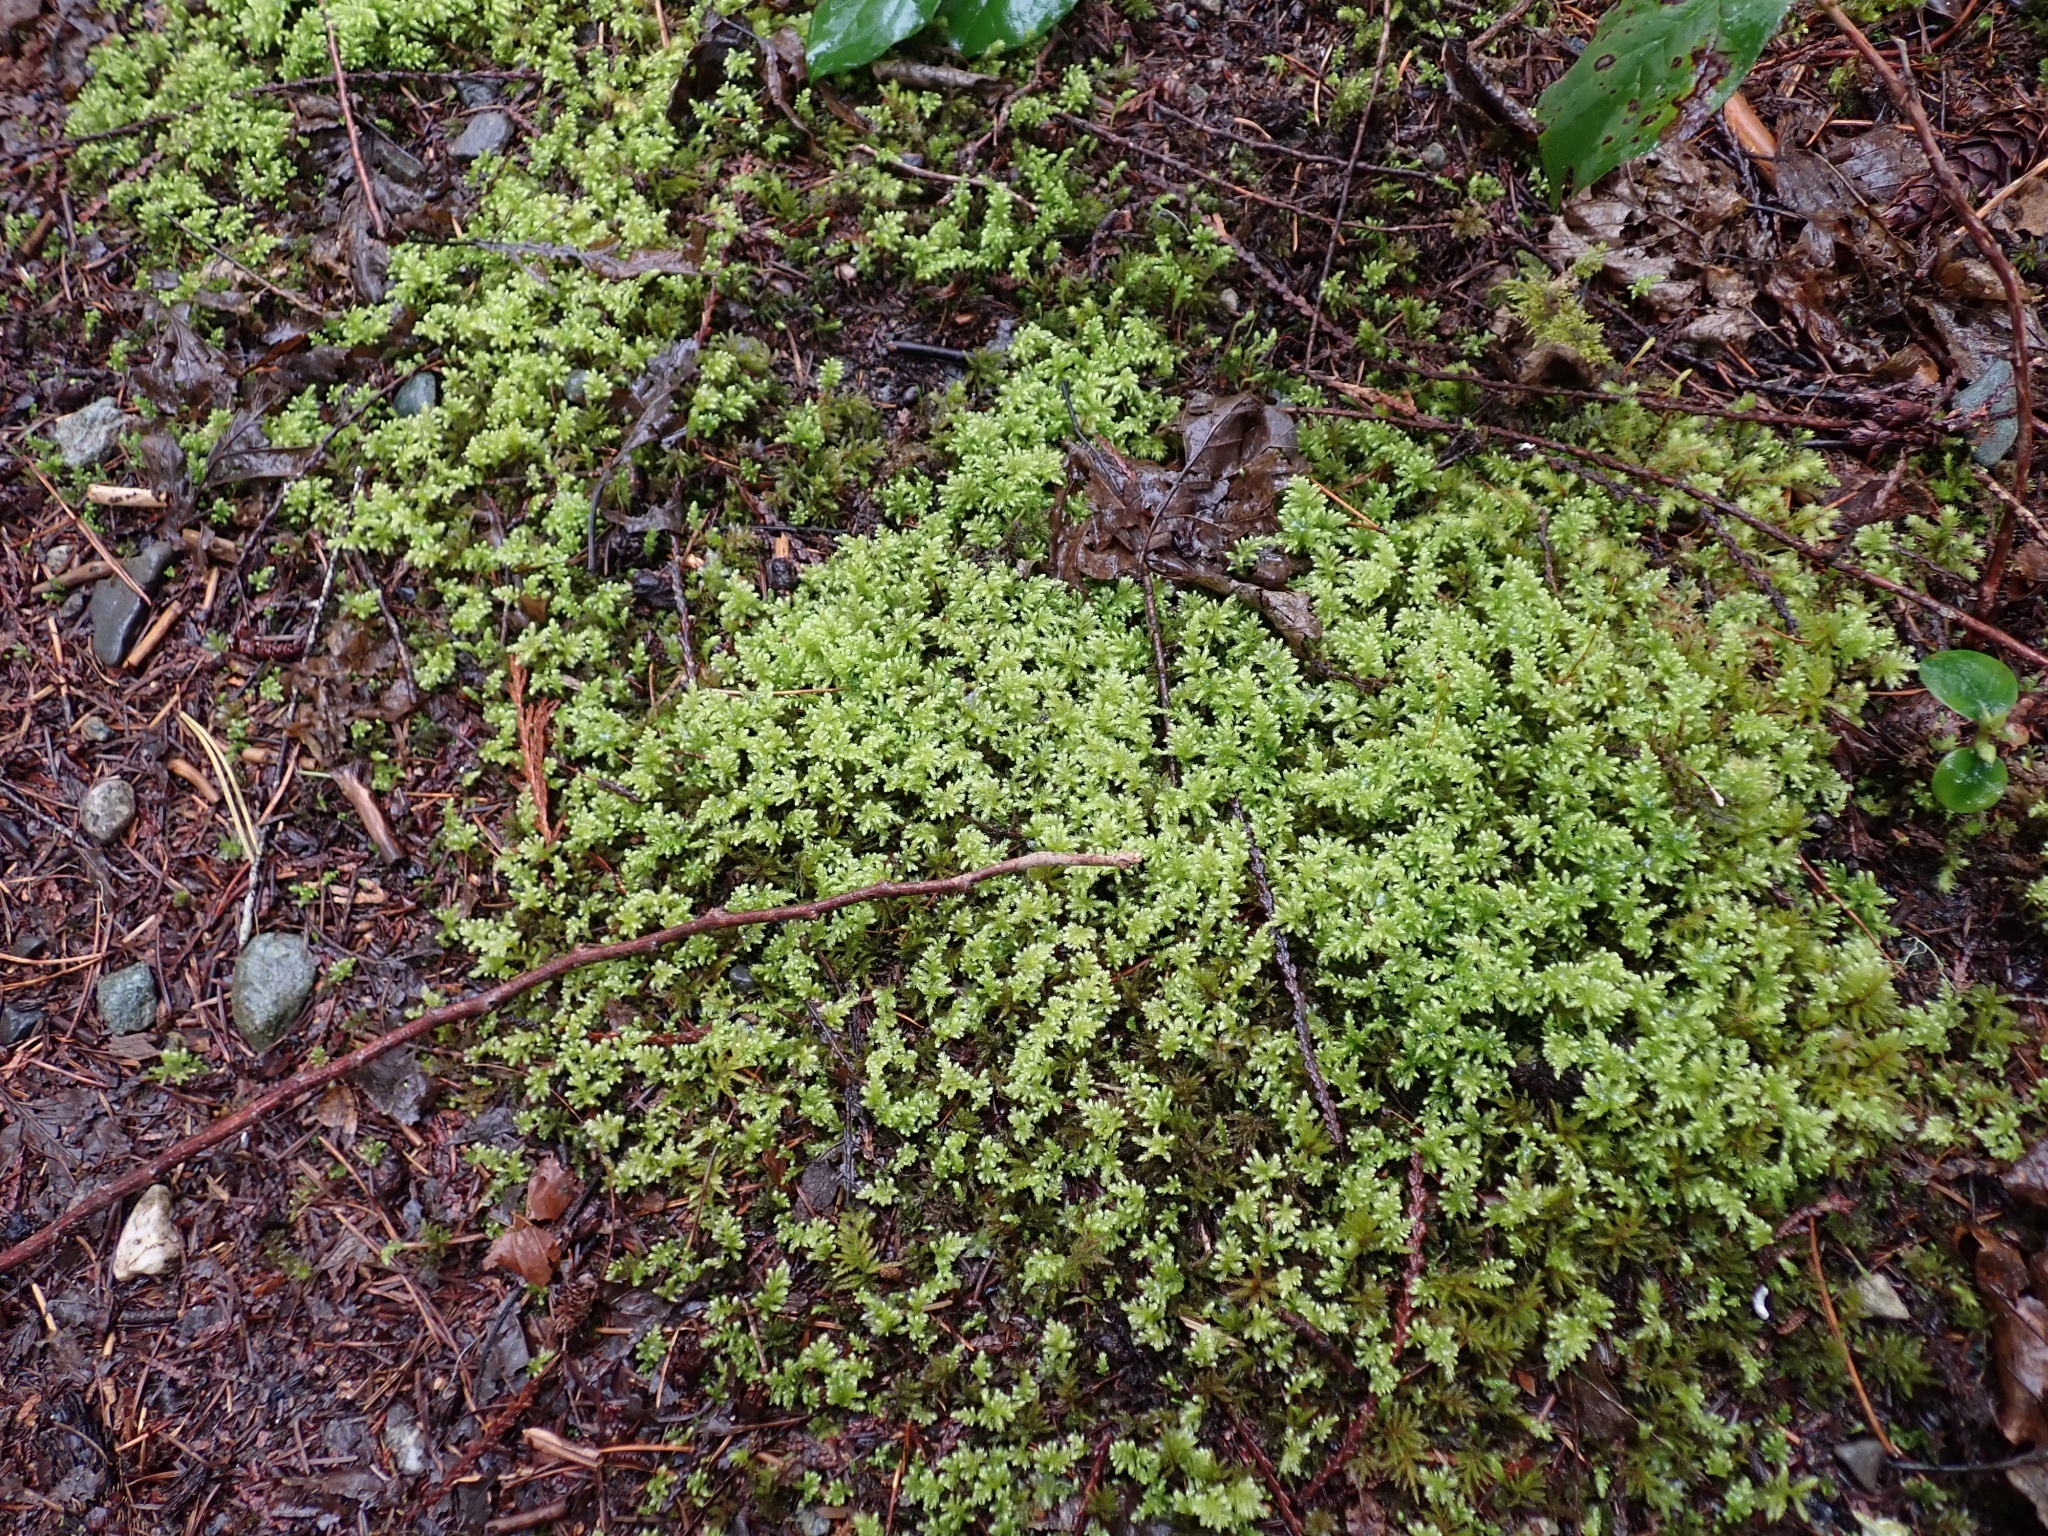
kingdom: Plantae
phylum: Bryophyta
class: Bryopsida
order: Bryales
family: Mniaceae
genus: Leucolepis
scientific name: Leucolepis acanthoneura
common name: Leucolepis umbrella moss
